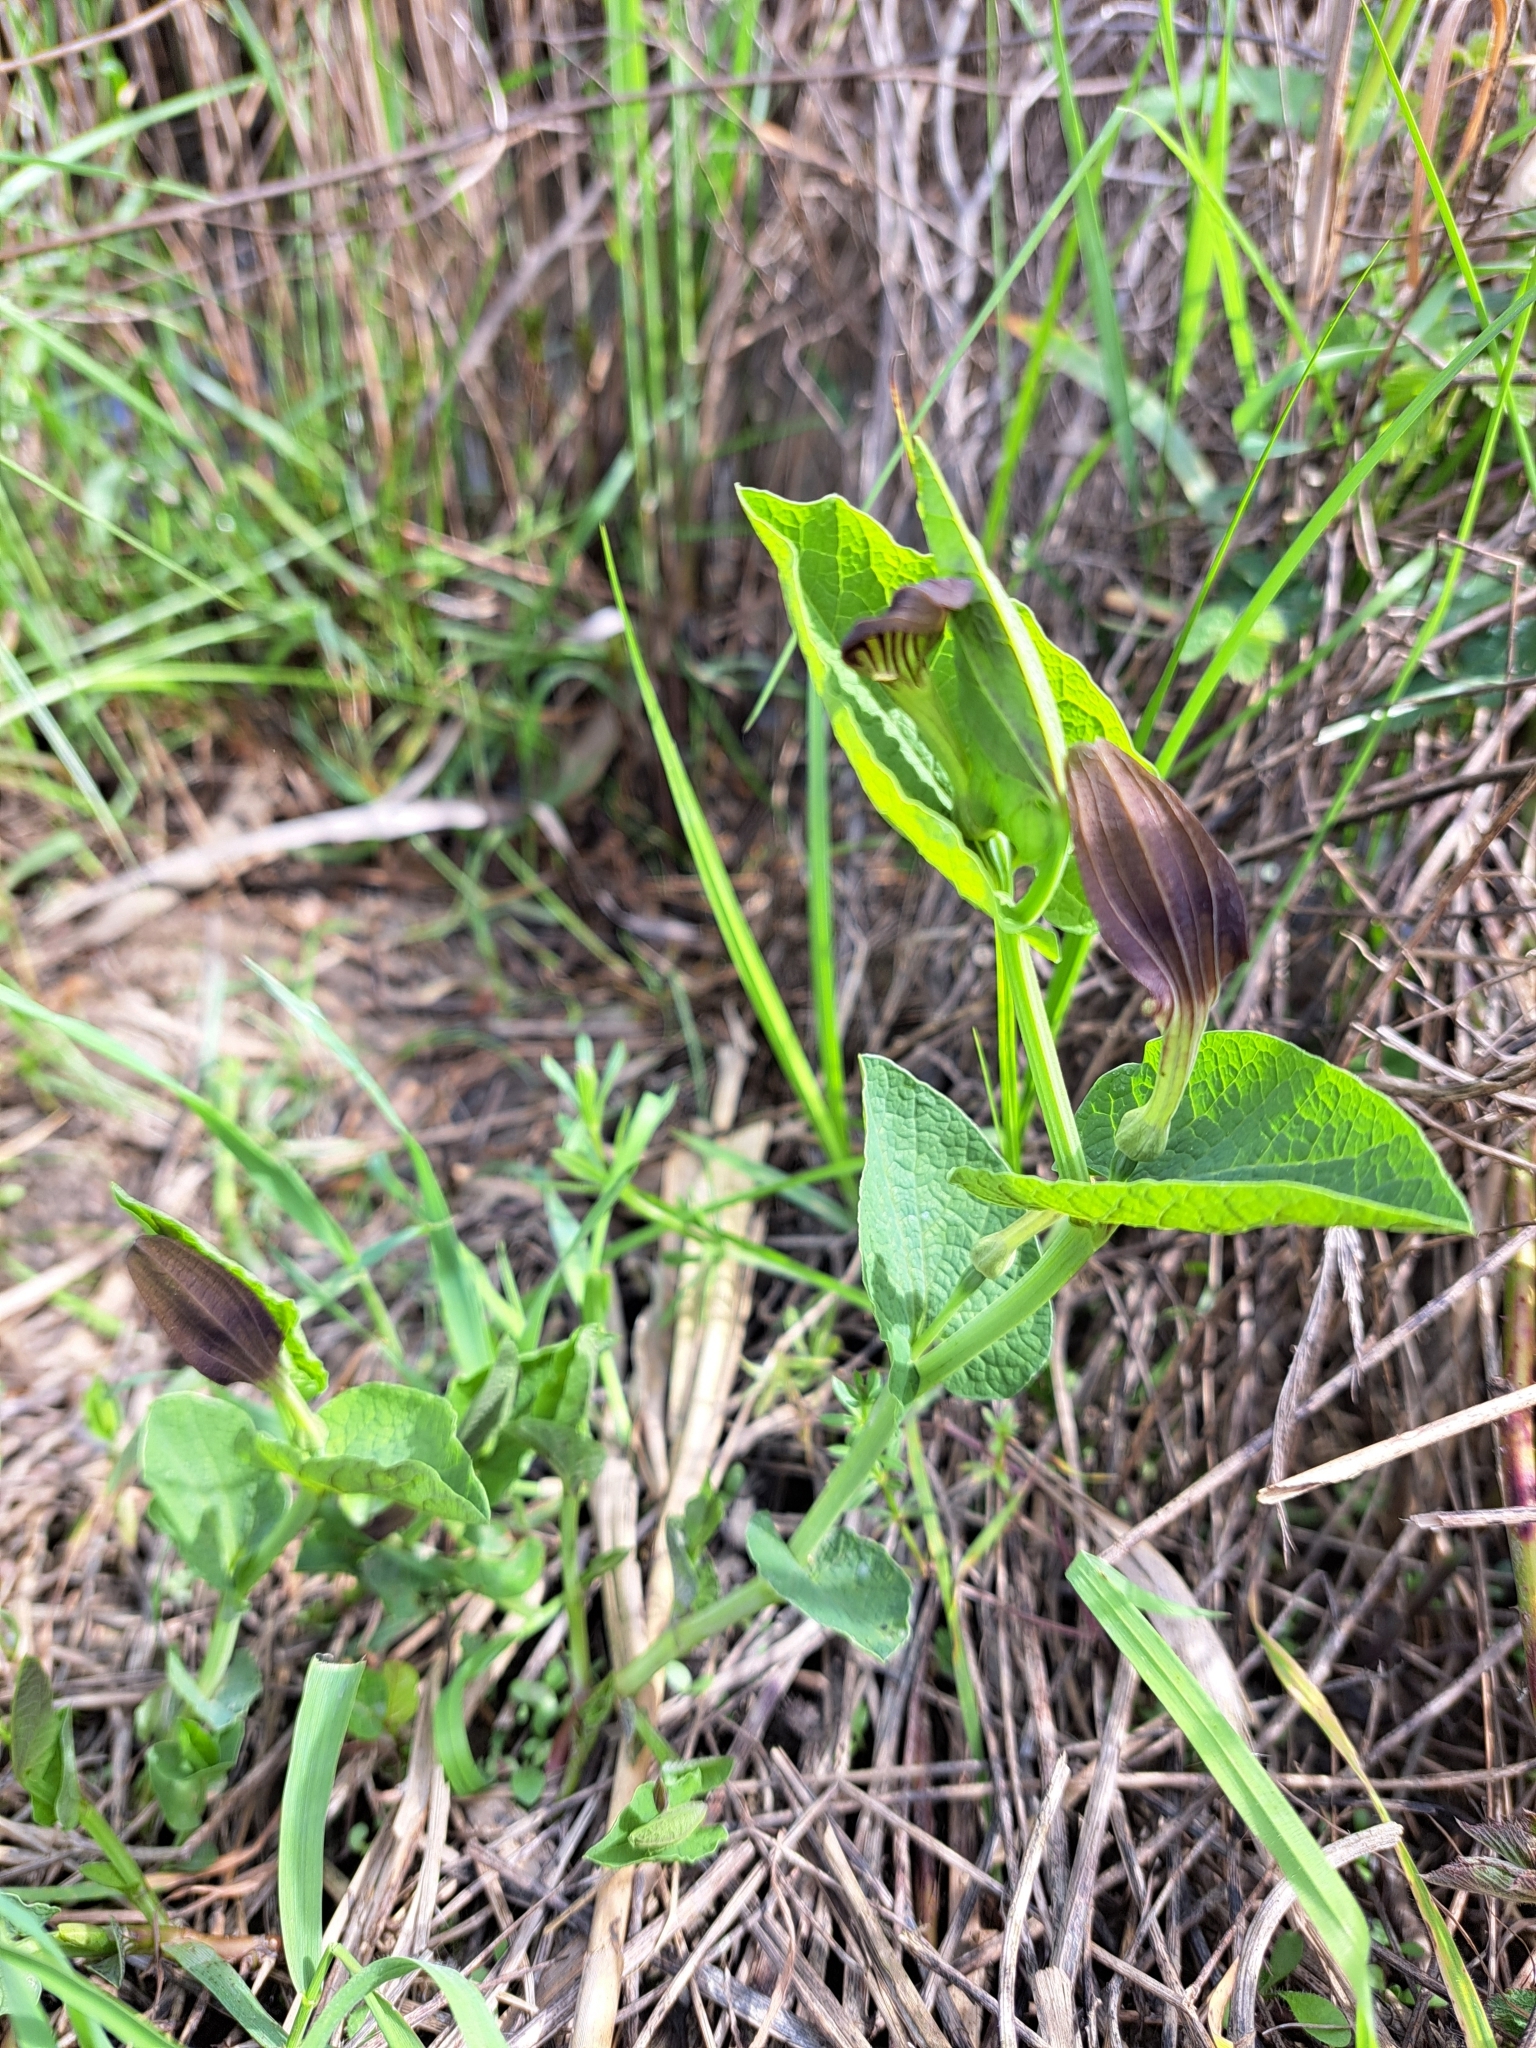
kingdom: Plantae
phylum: Tracheophyta
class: Magnoliopsida
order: Piperales
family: Aristolochiaceae
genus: Aristolochia
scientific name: Aristolochia rotunda
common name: Smearwort
